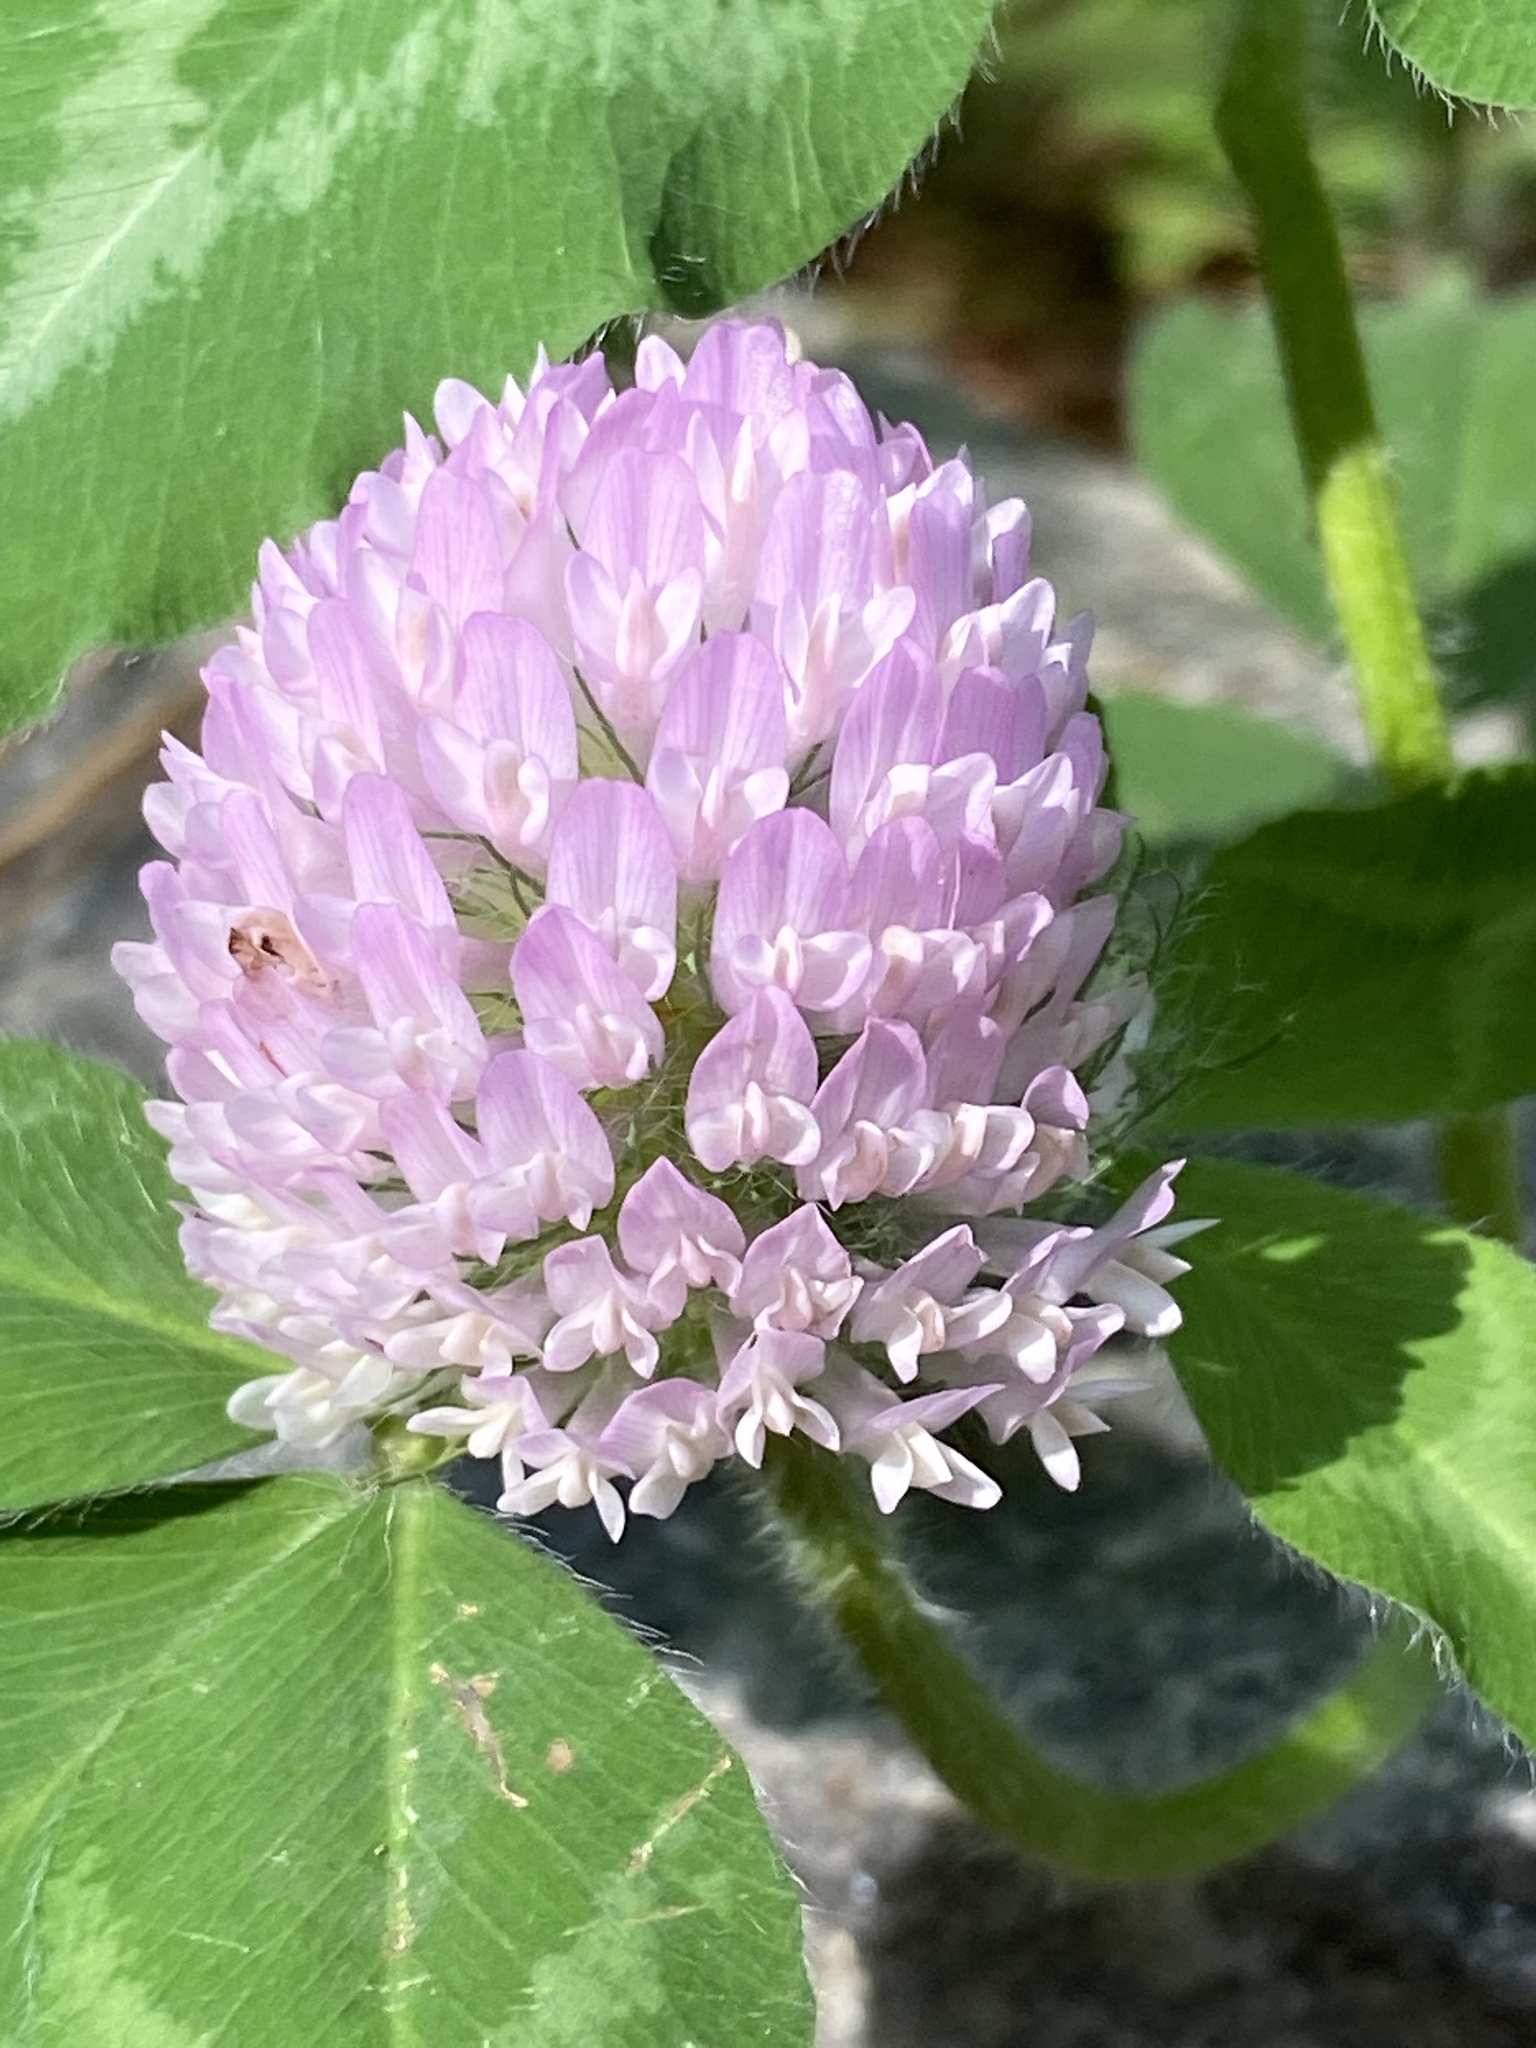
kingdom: Plantae
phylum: Tracheophyta
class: Magnoliopsida
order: Fabales
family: Fabaceae
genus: Trifolium
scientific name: Trifolium pratense
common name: Red clover
